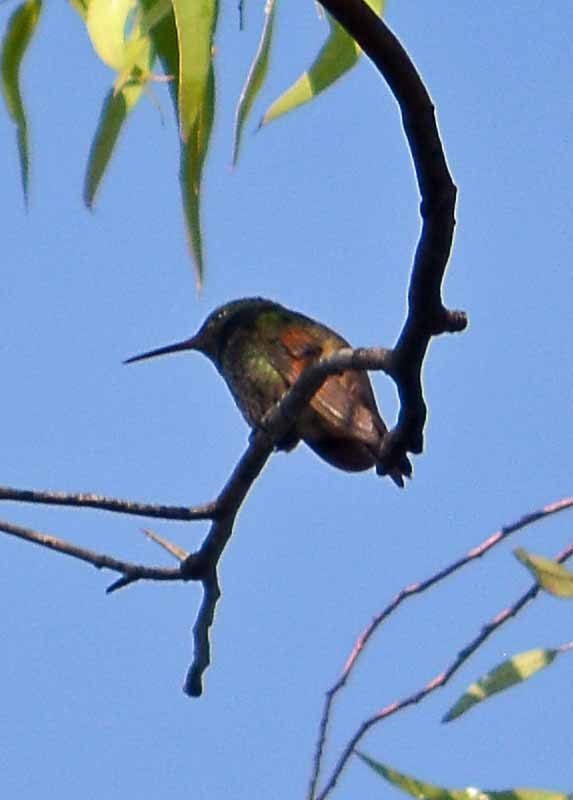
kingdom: Animalia
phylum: Chordata
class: Aves
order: Apodiformes
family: Trochilidae
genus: Saucerottia
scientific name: Saucerottia beryllina
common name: Berylline hummingbird
